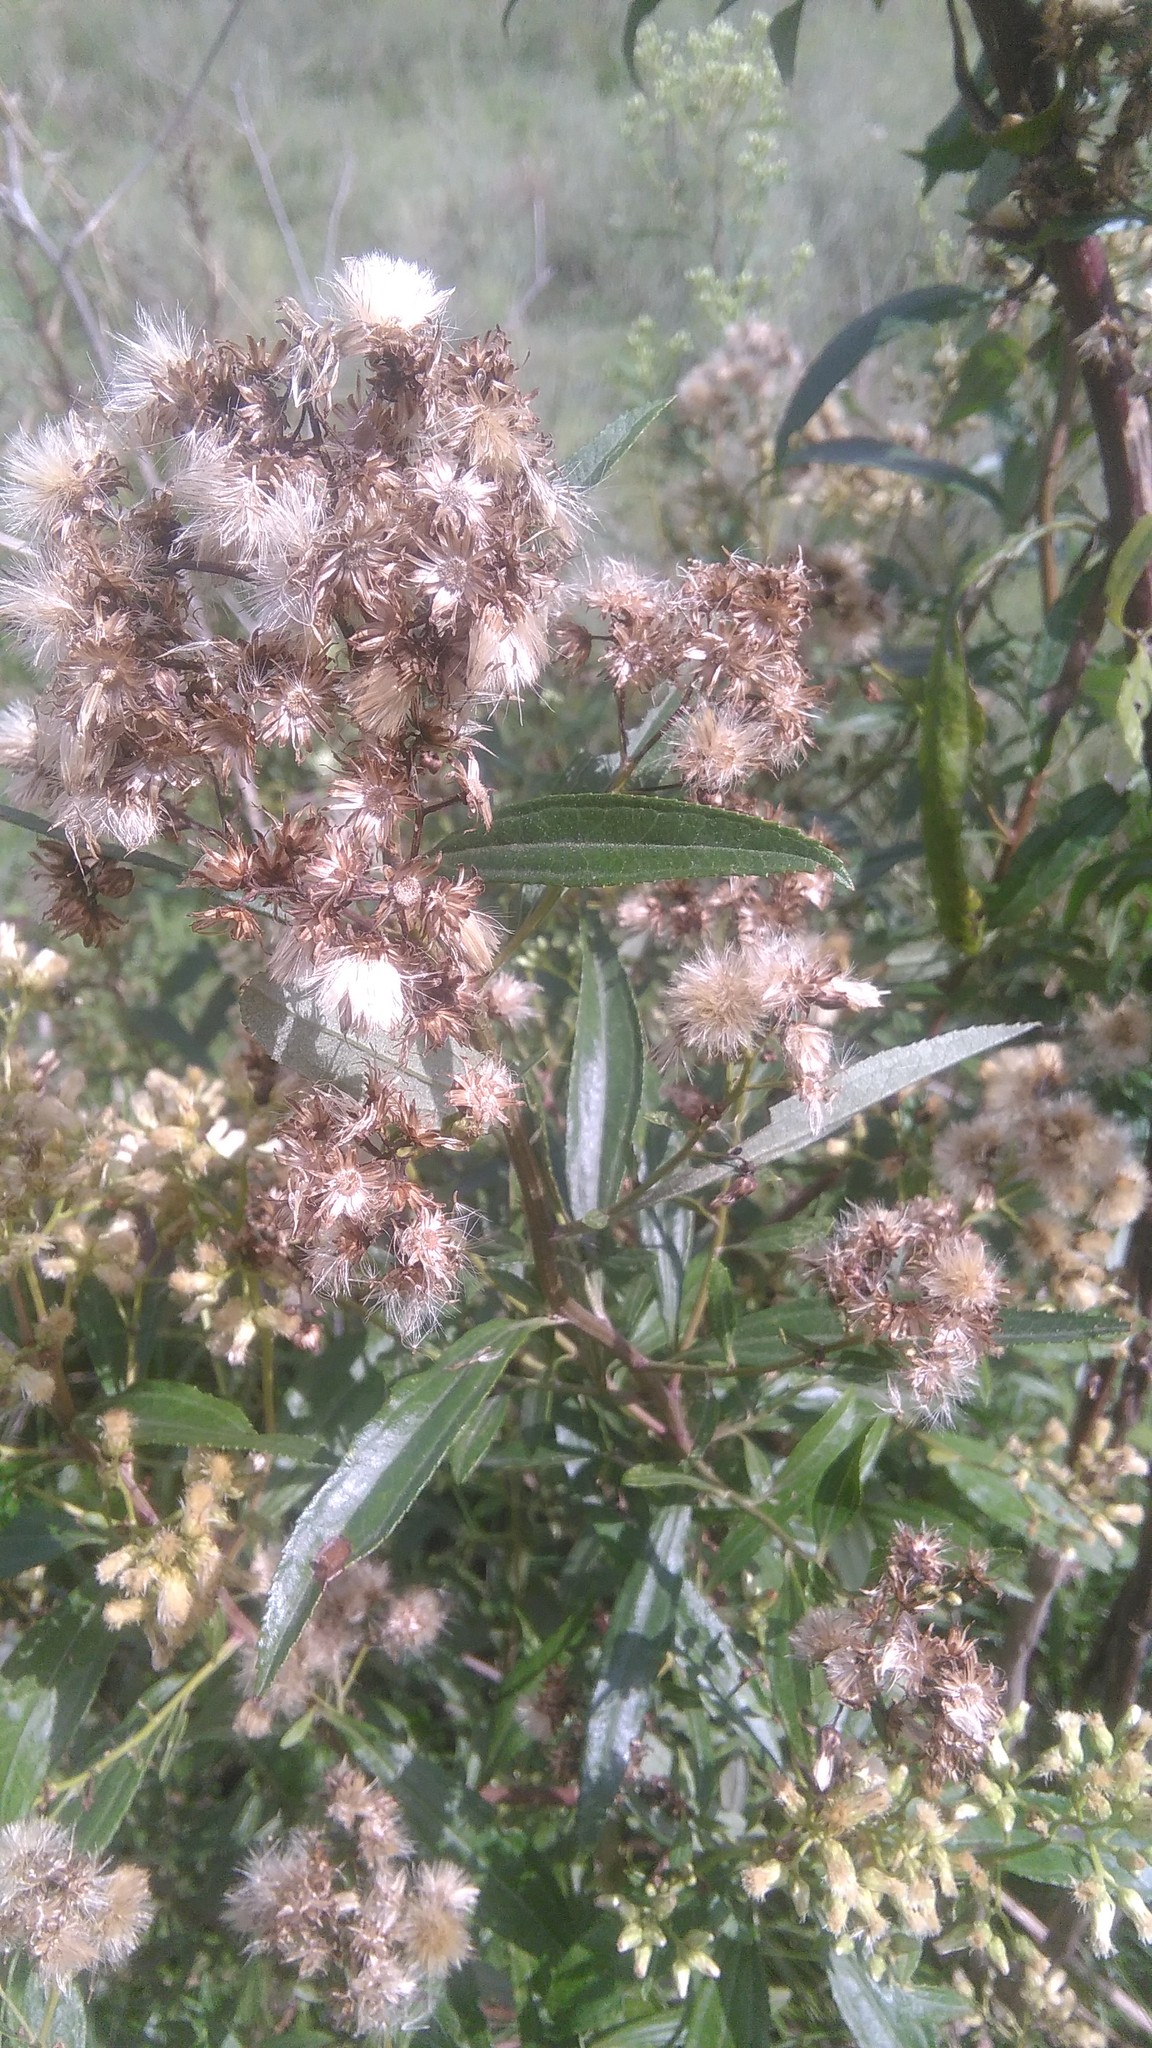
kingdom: Plantae
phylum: Tracheophyta
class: Magnoliopsida
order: Asterales
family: Asteraceae
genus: Baccharis
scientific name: Baccharis punctulata
